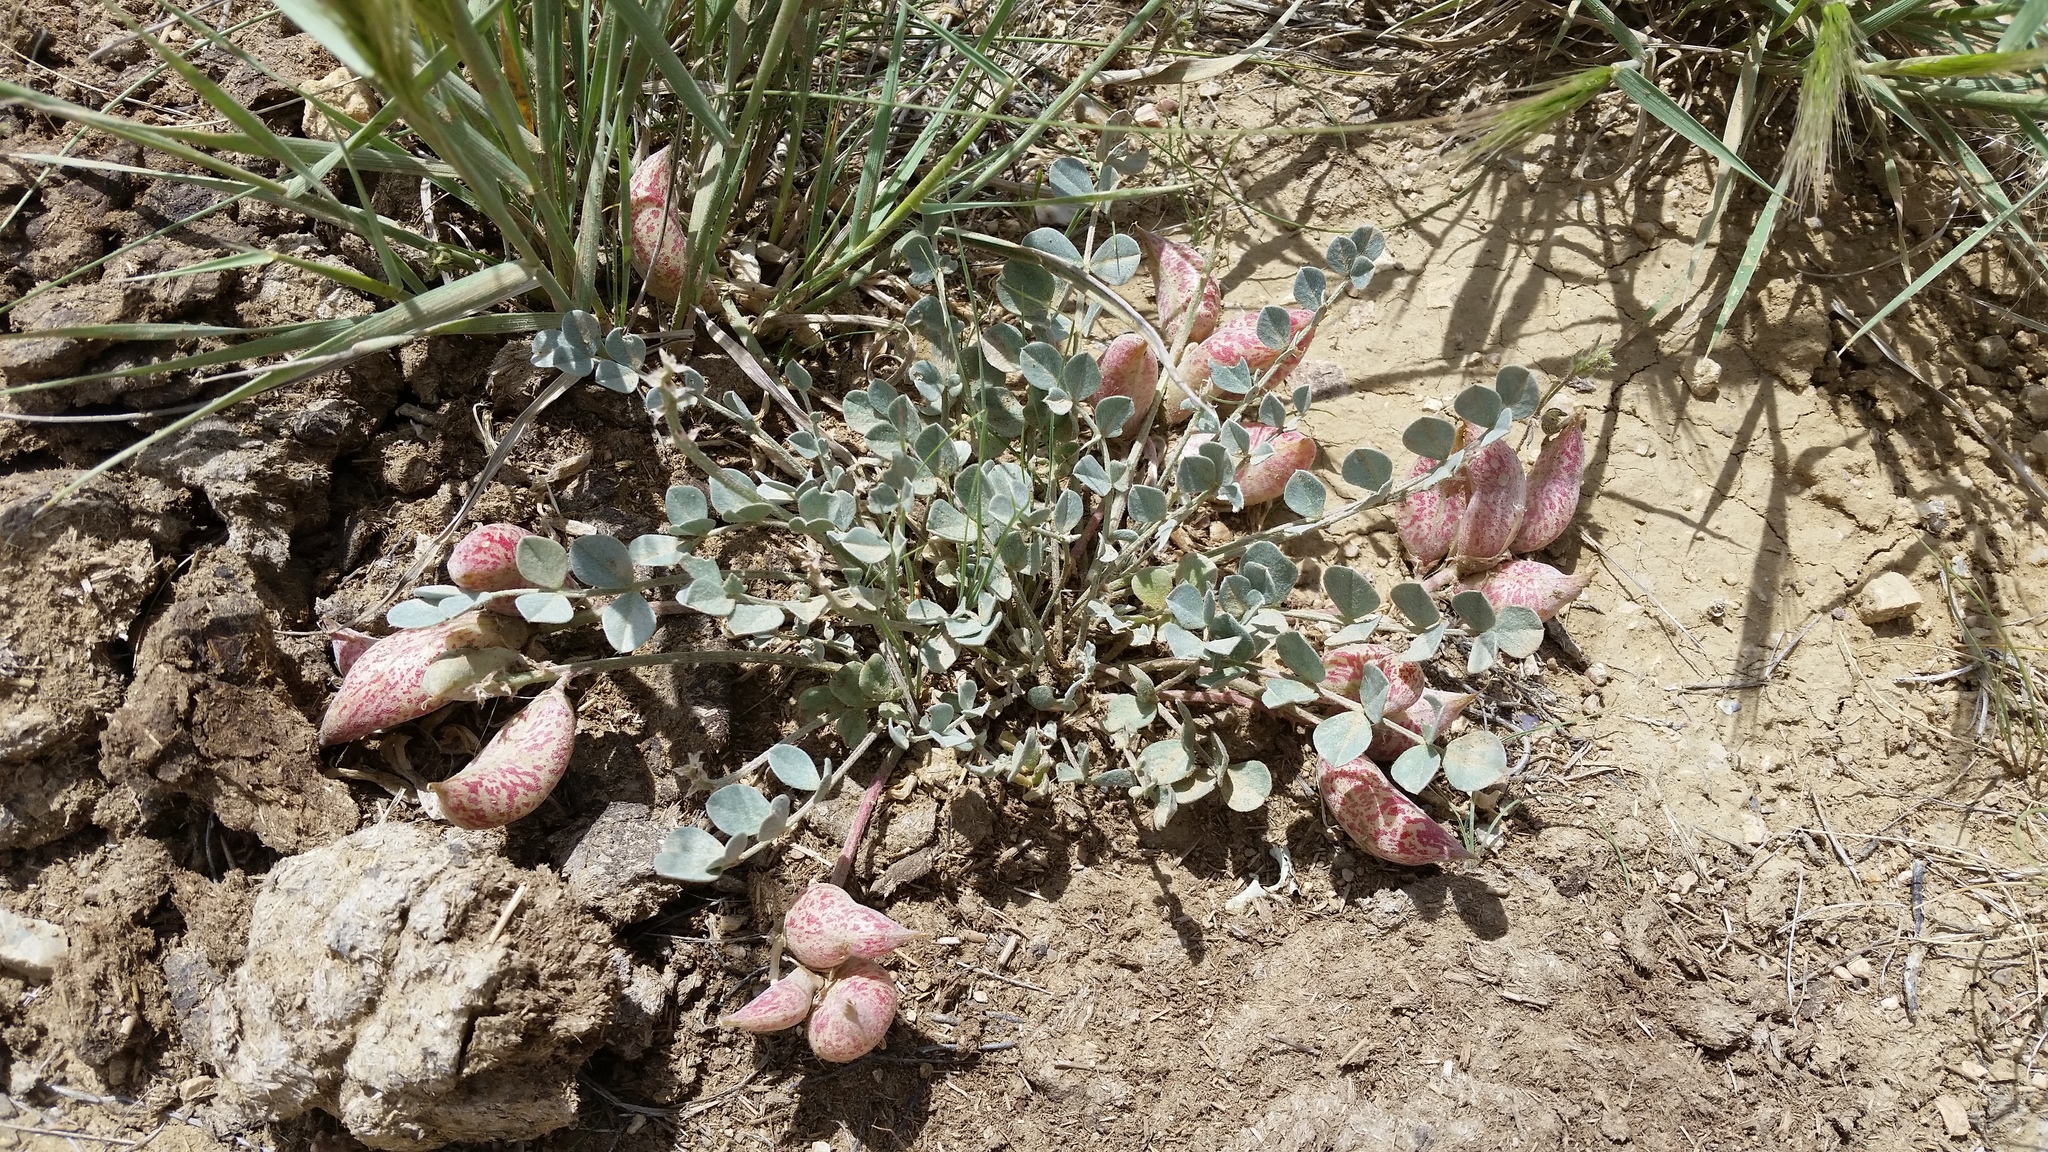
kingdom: Plantae
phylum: Tracheophyta
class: Magnoliopsida
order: Fabales
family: Fabaceae
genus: Astragalus
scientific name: Astragalus chamaeleuce
